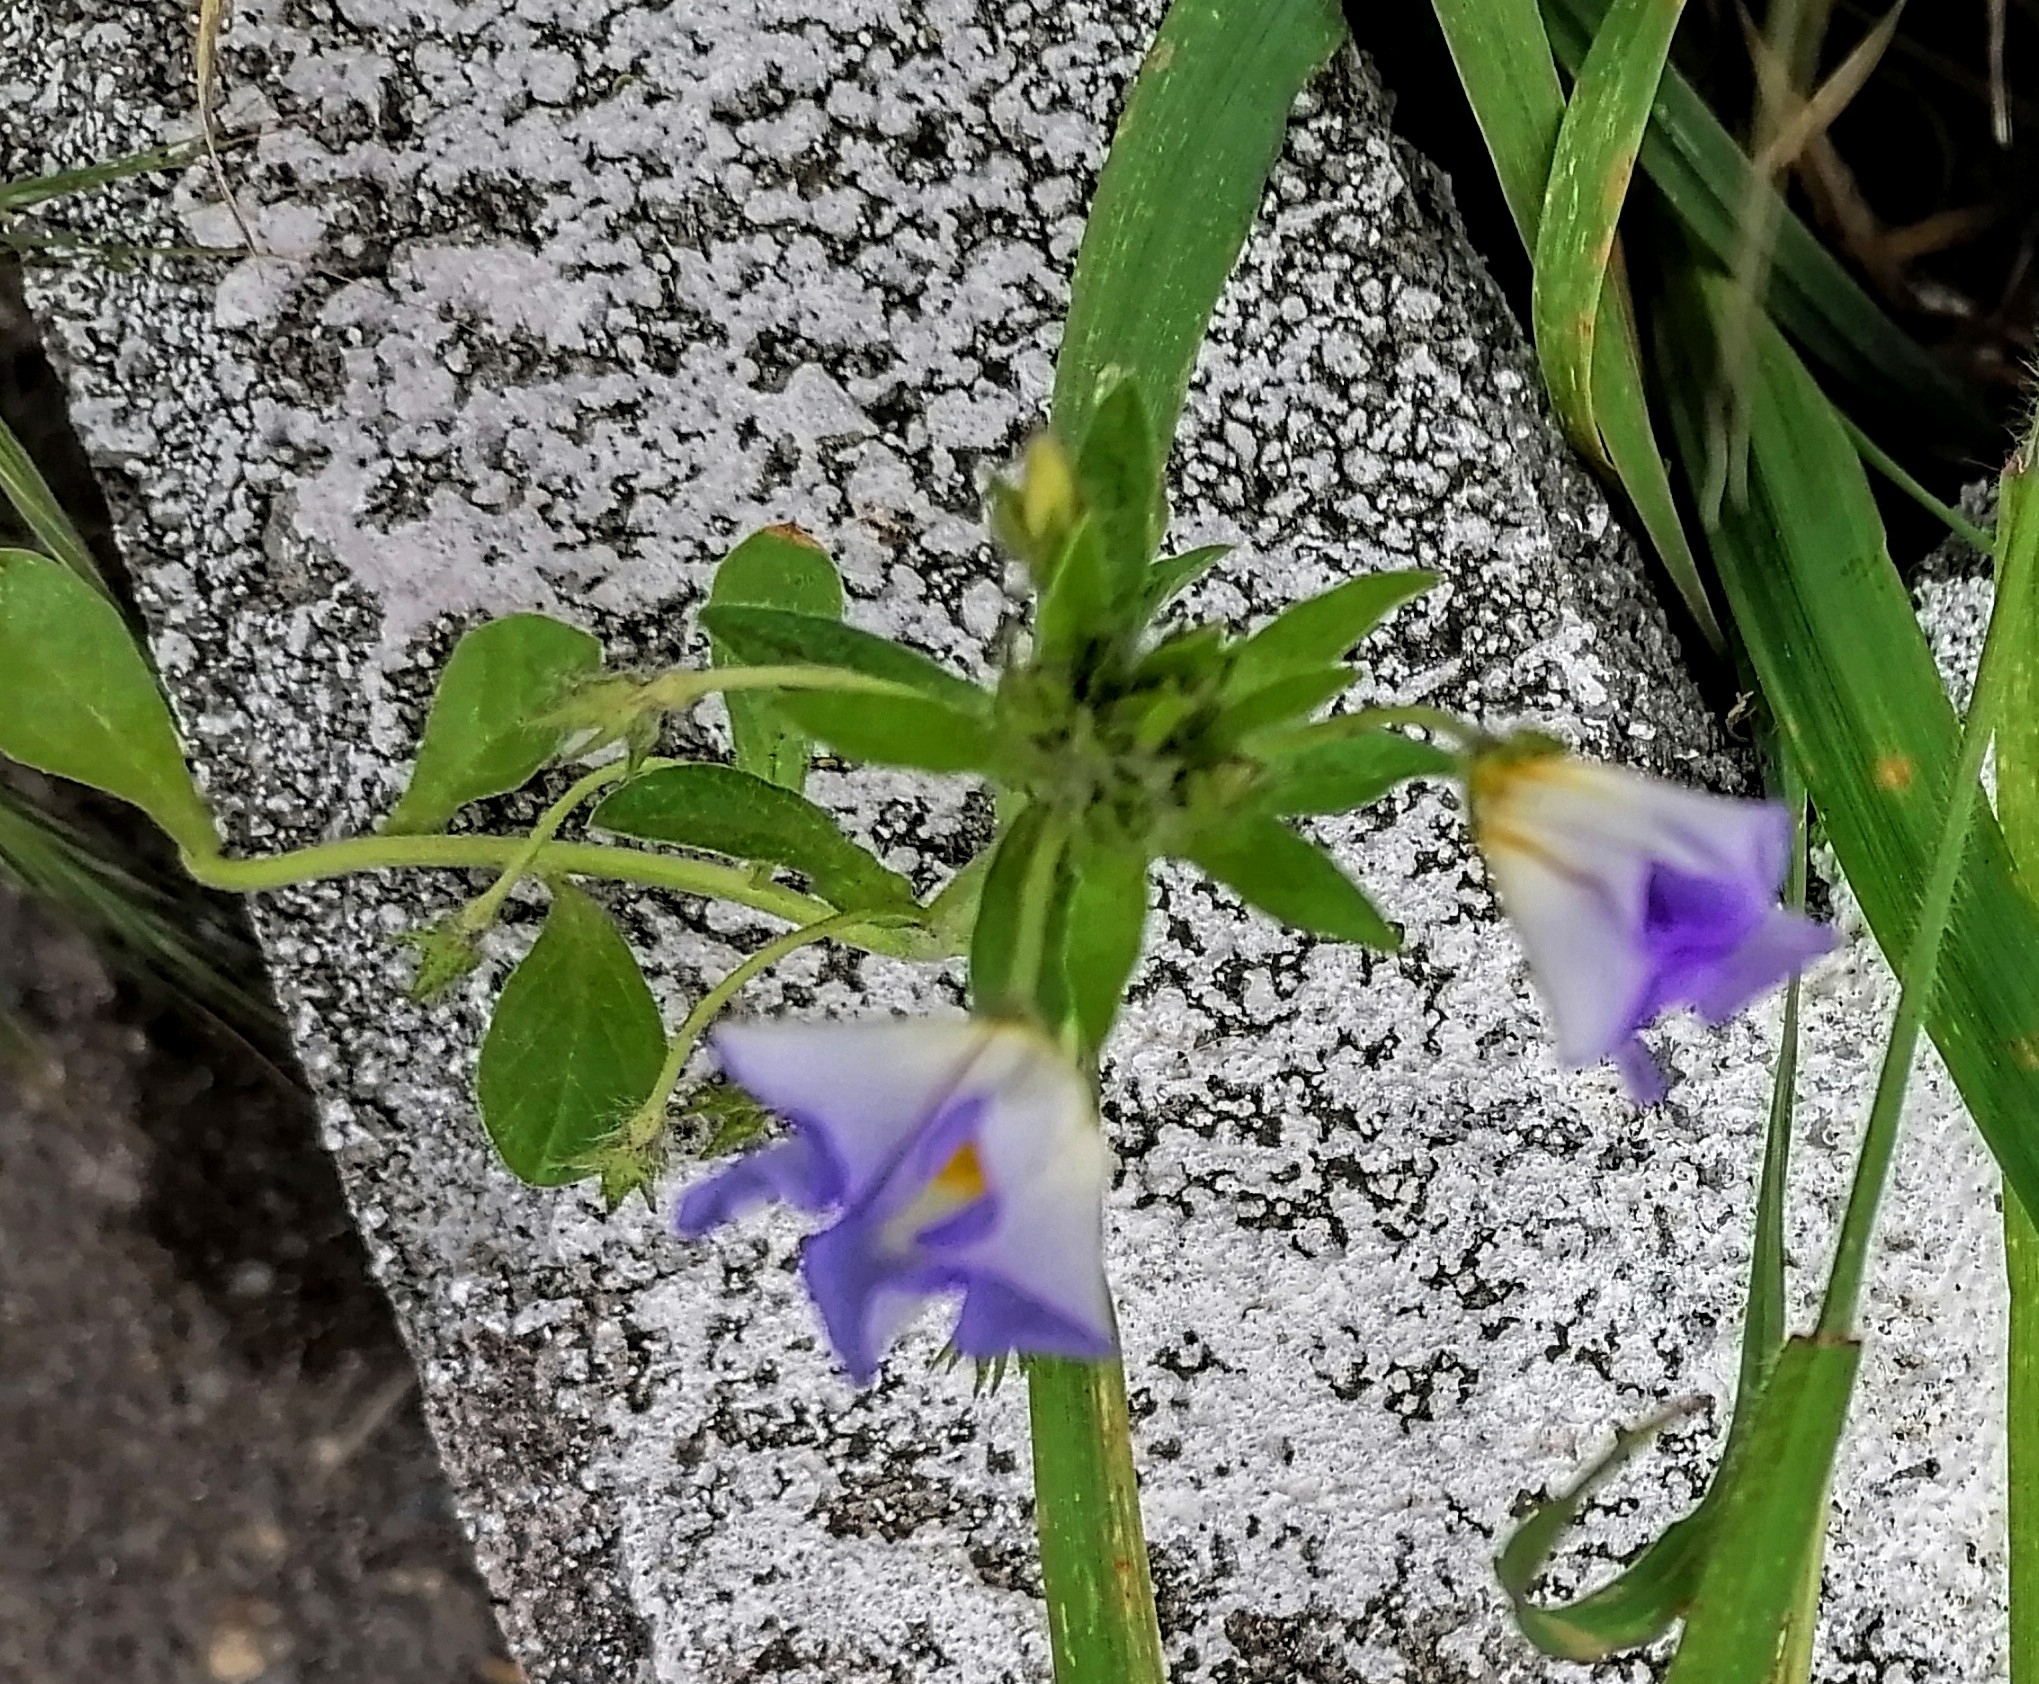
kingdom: Plantae
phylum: Tracheophyta
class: Magnoliopsida
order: Solanales
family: Convolvulaceae
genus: Convolvulus
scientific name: Convolvulus tricolor
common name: Dwarf morning-glory
